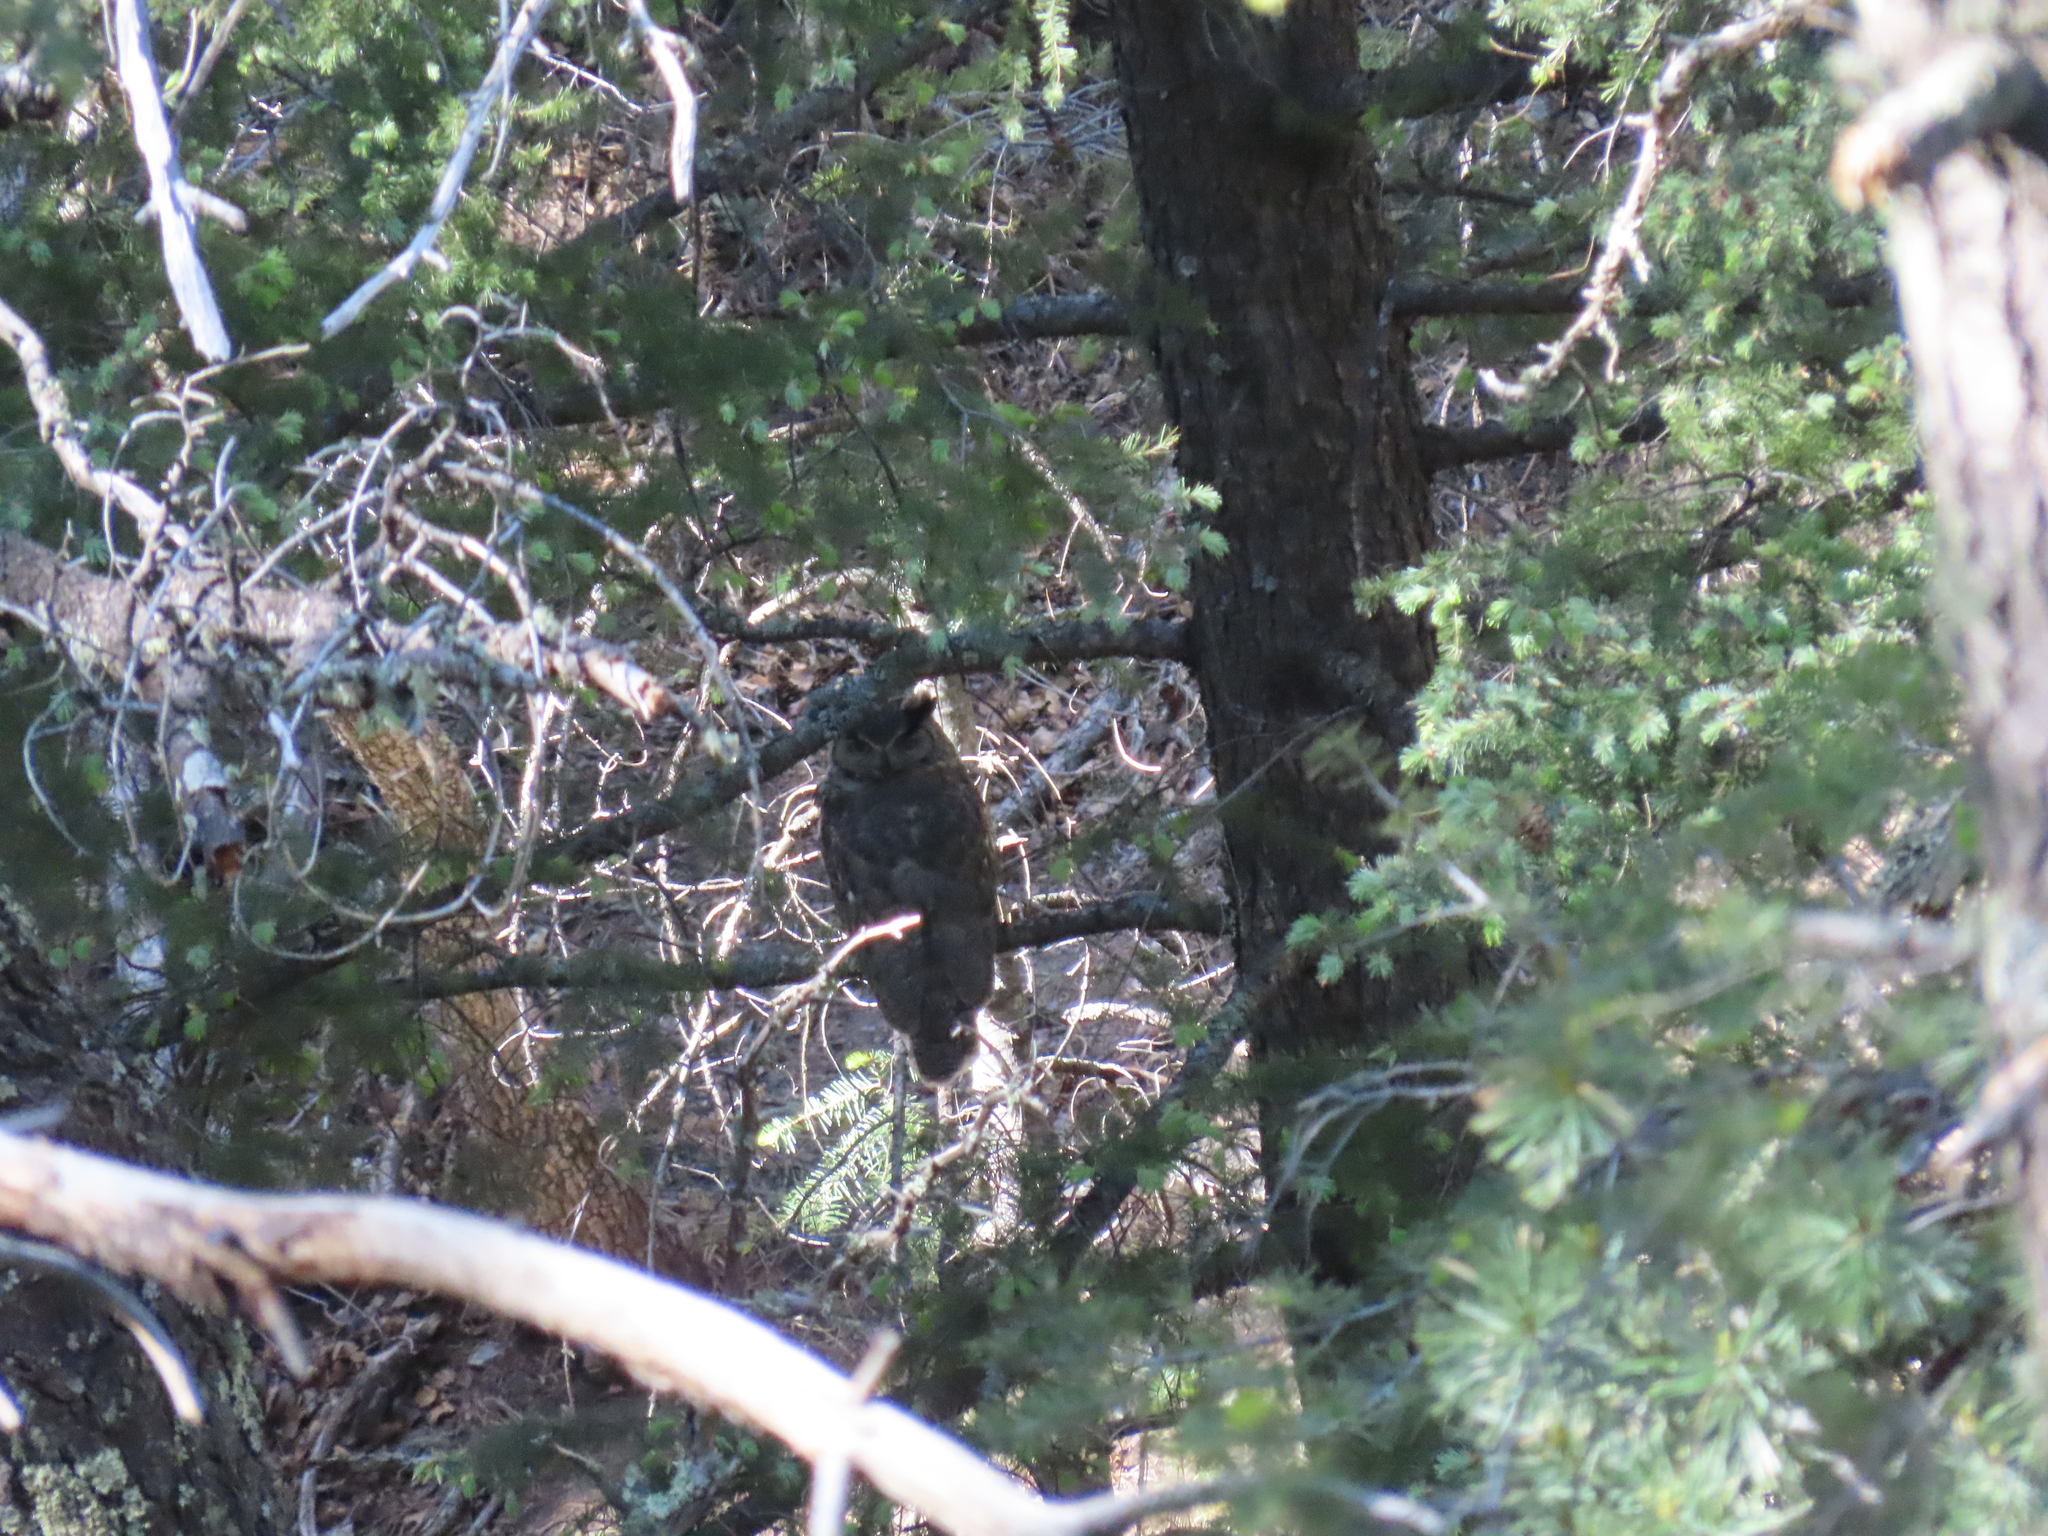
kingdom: Animalia
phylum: Chordata
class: Aves
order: Strigiformes
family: Strigidae
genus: Bubo
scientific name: Bubo virginianus
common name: Great horned owl
